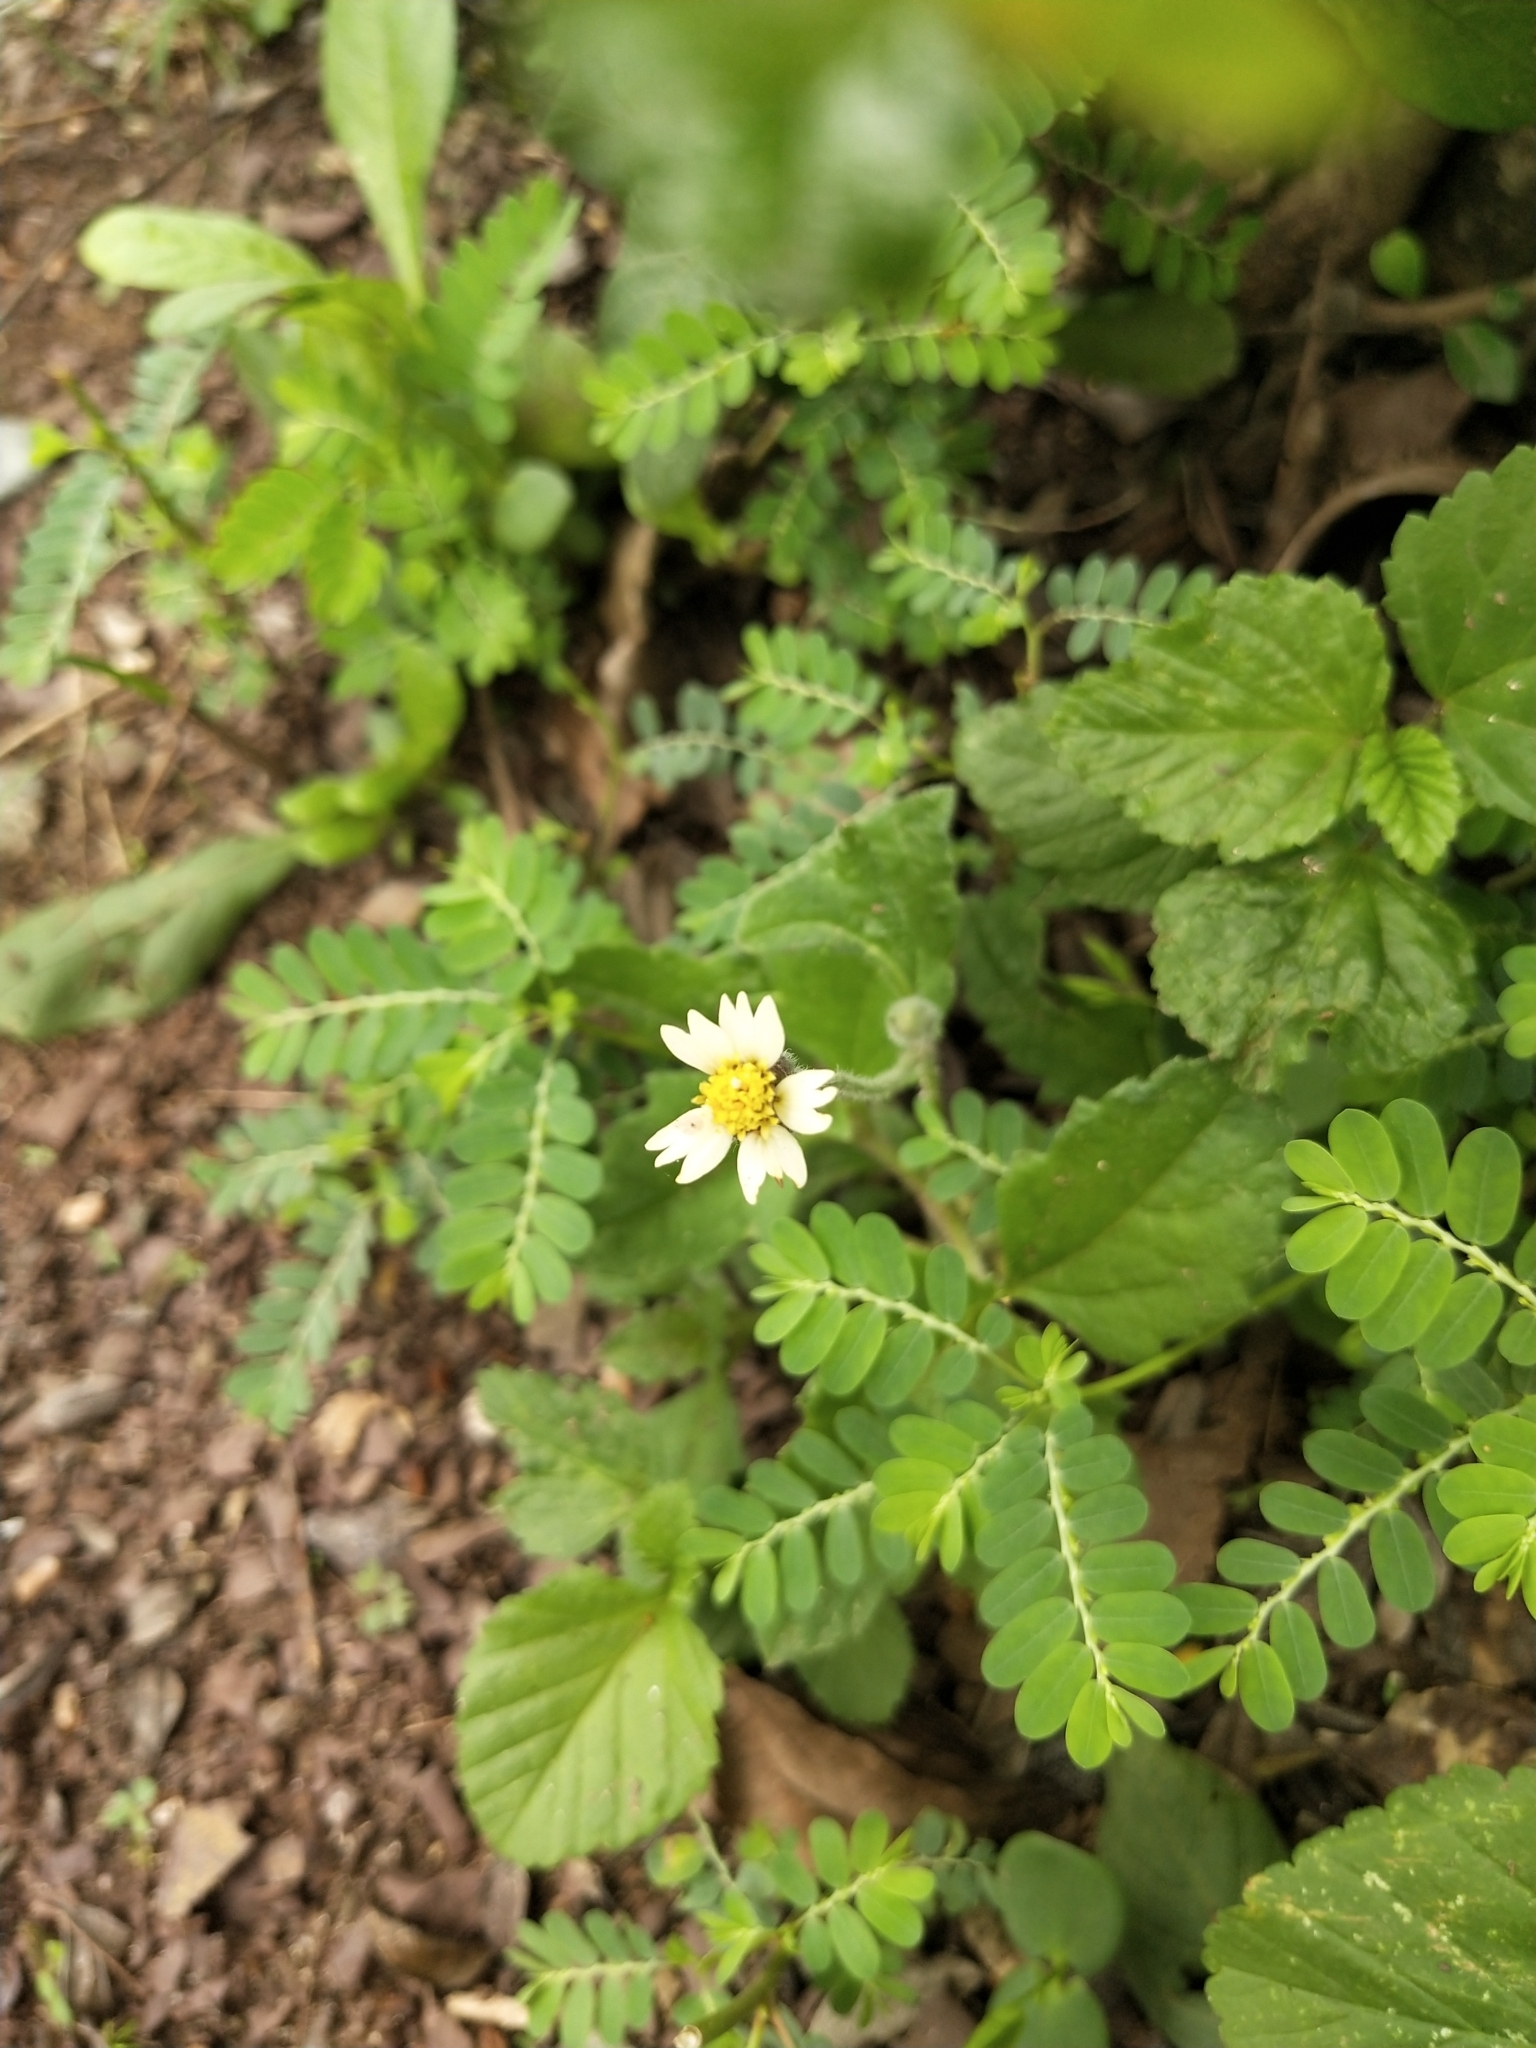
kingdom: Plantae
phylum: Tracheophyta
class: Magnoliopsida
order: Asterales
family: Asteraceae
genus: Tridax
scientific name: Tridax procumbens
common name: Coatbuttons
